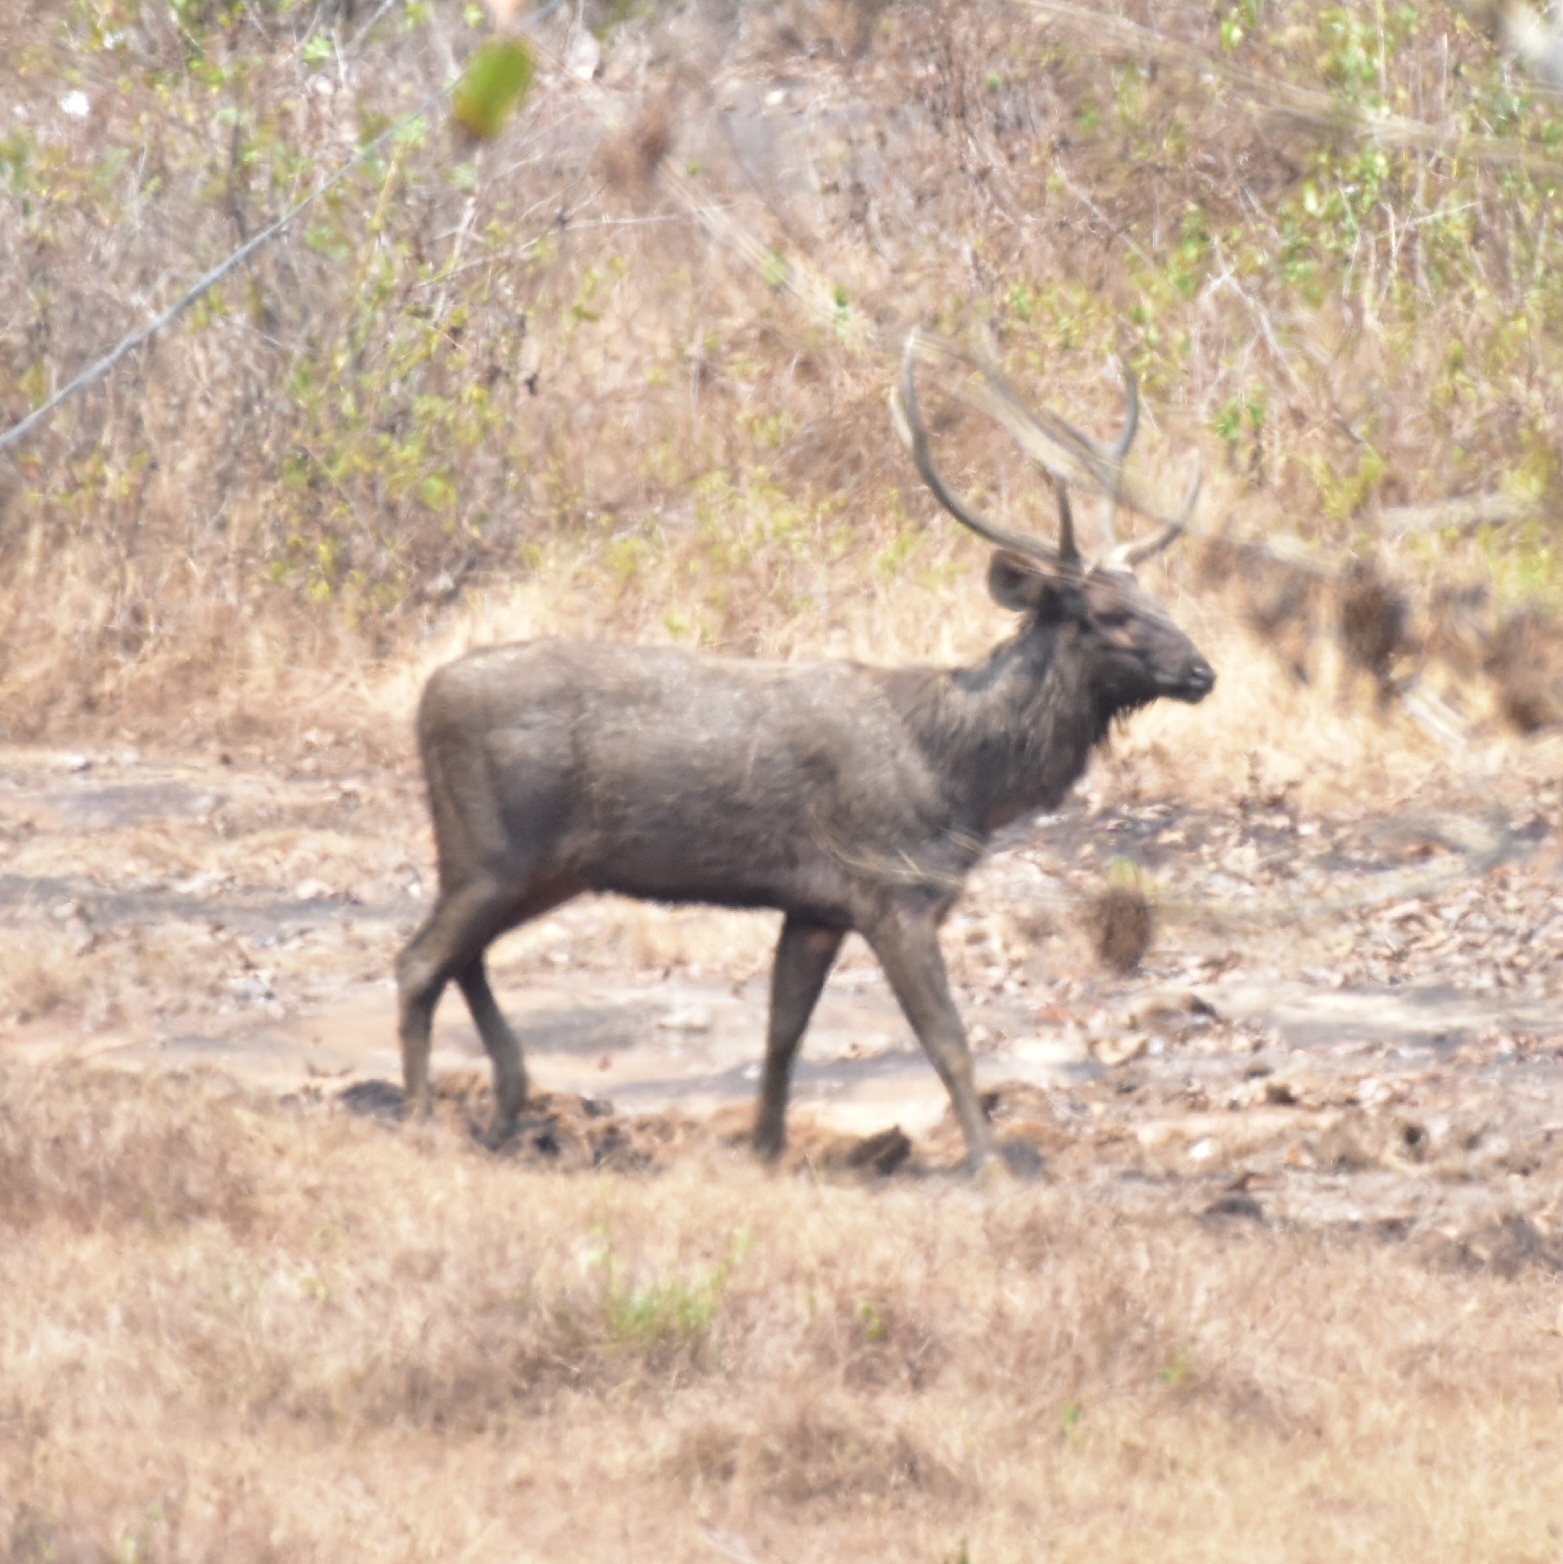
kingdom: Animalia
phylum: Chordata
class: Mammalia
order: Artiodactyla
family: Cervidae
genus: Rusa
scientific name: Rusa unicolor
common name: Sambar
